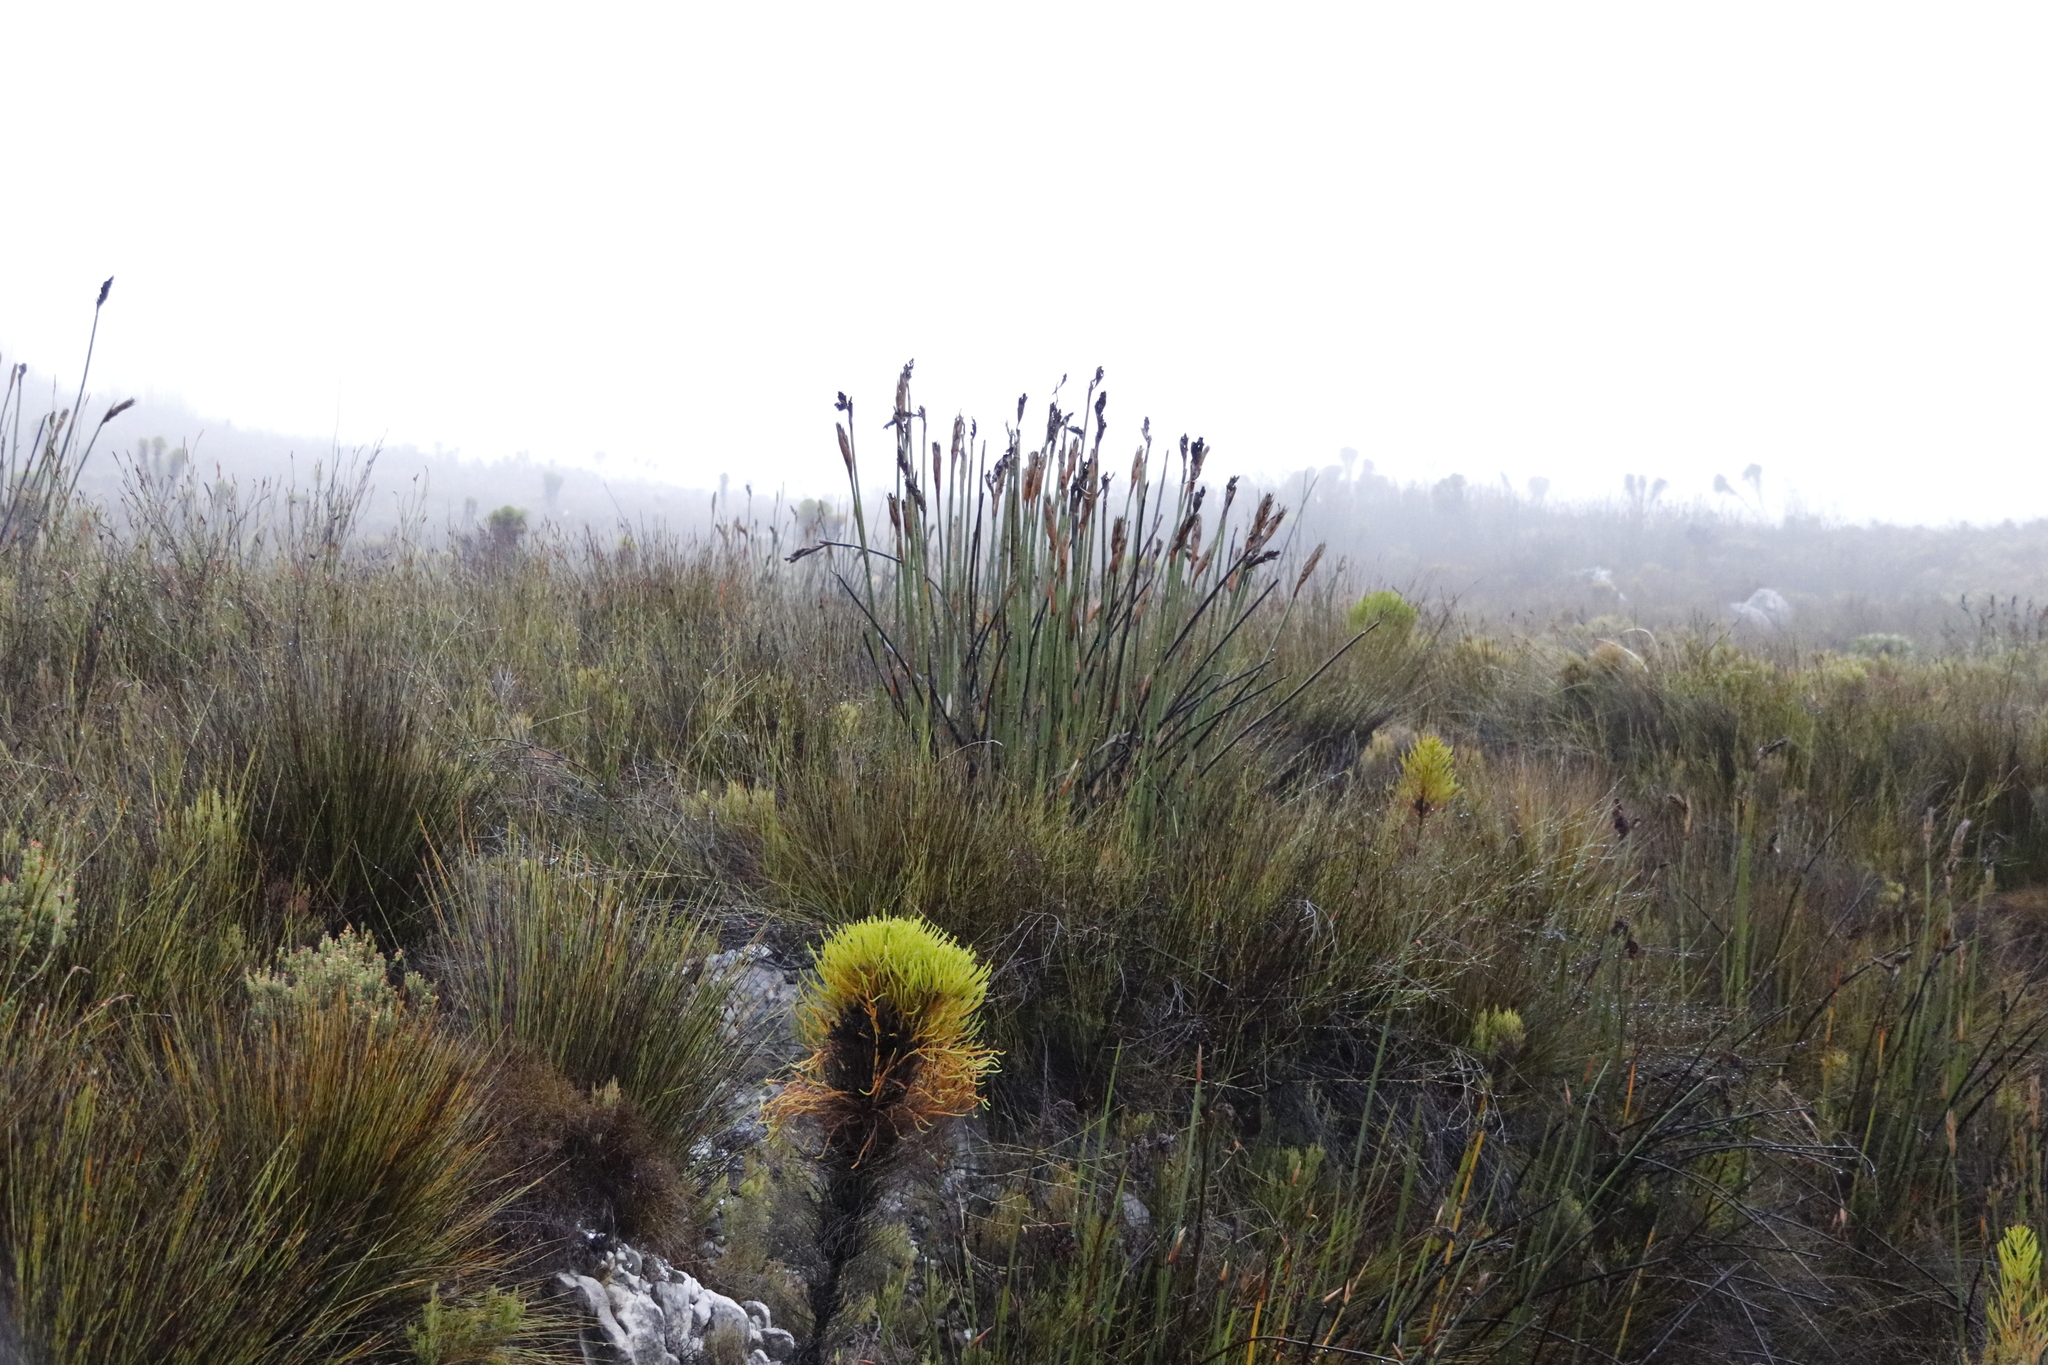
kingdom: Plantae
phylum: Tracheophyta
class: Liliopsida
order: Poales
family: Restionaceae
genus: Elegia
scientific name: Elegia mucronata
